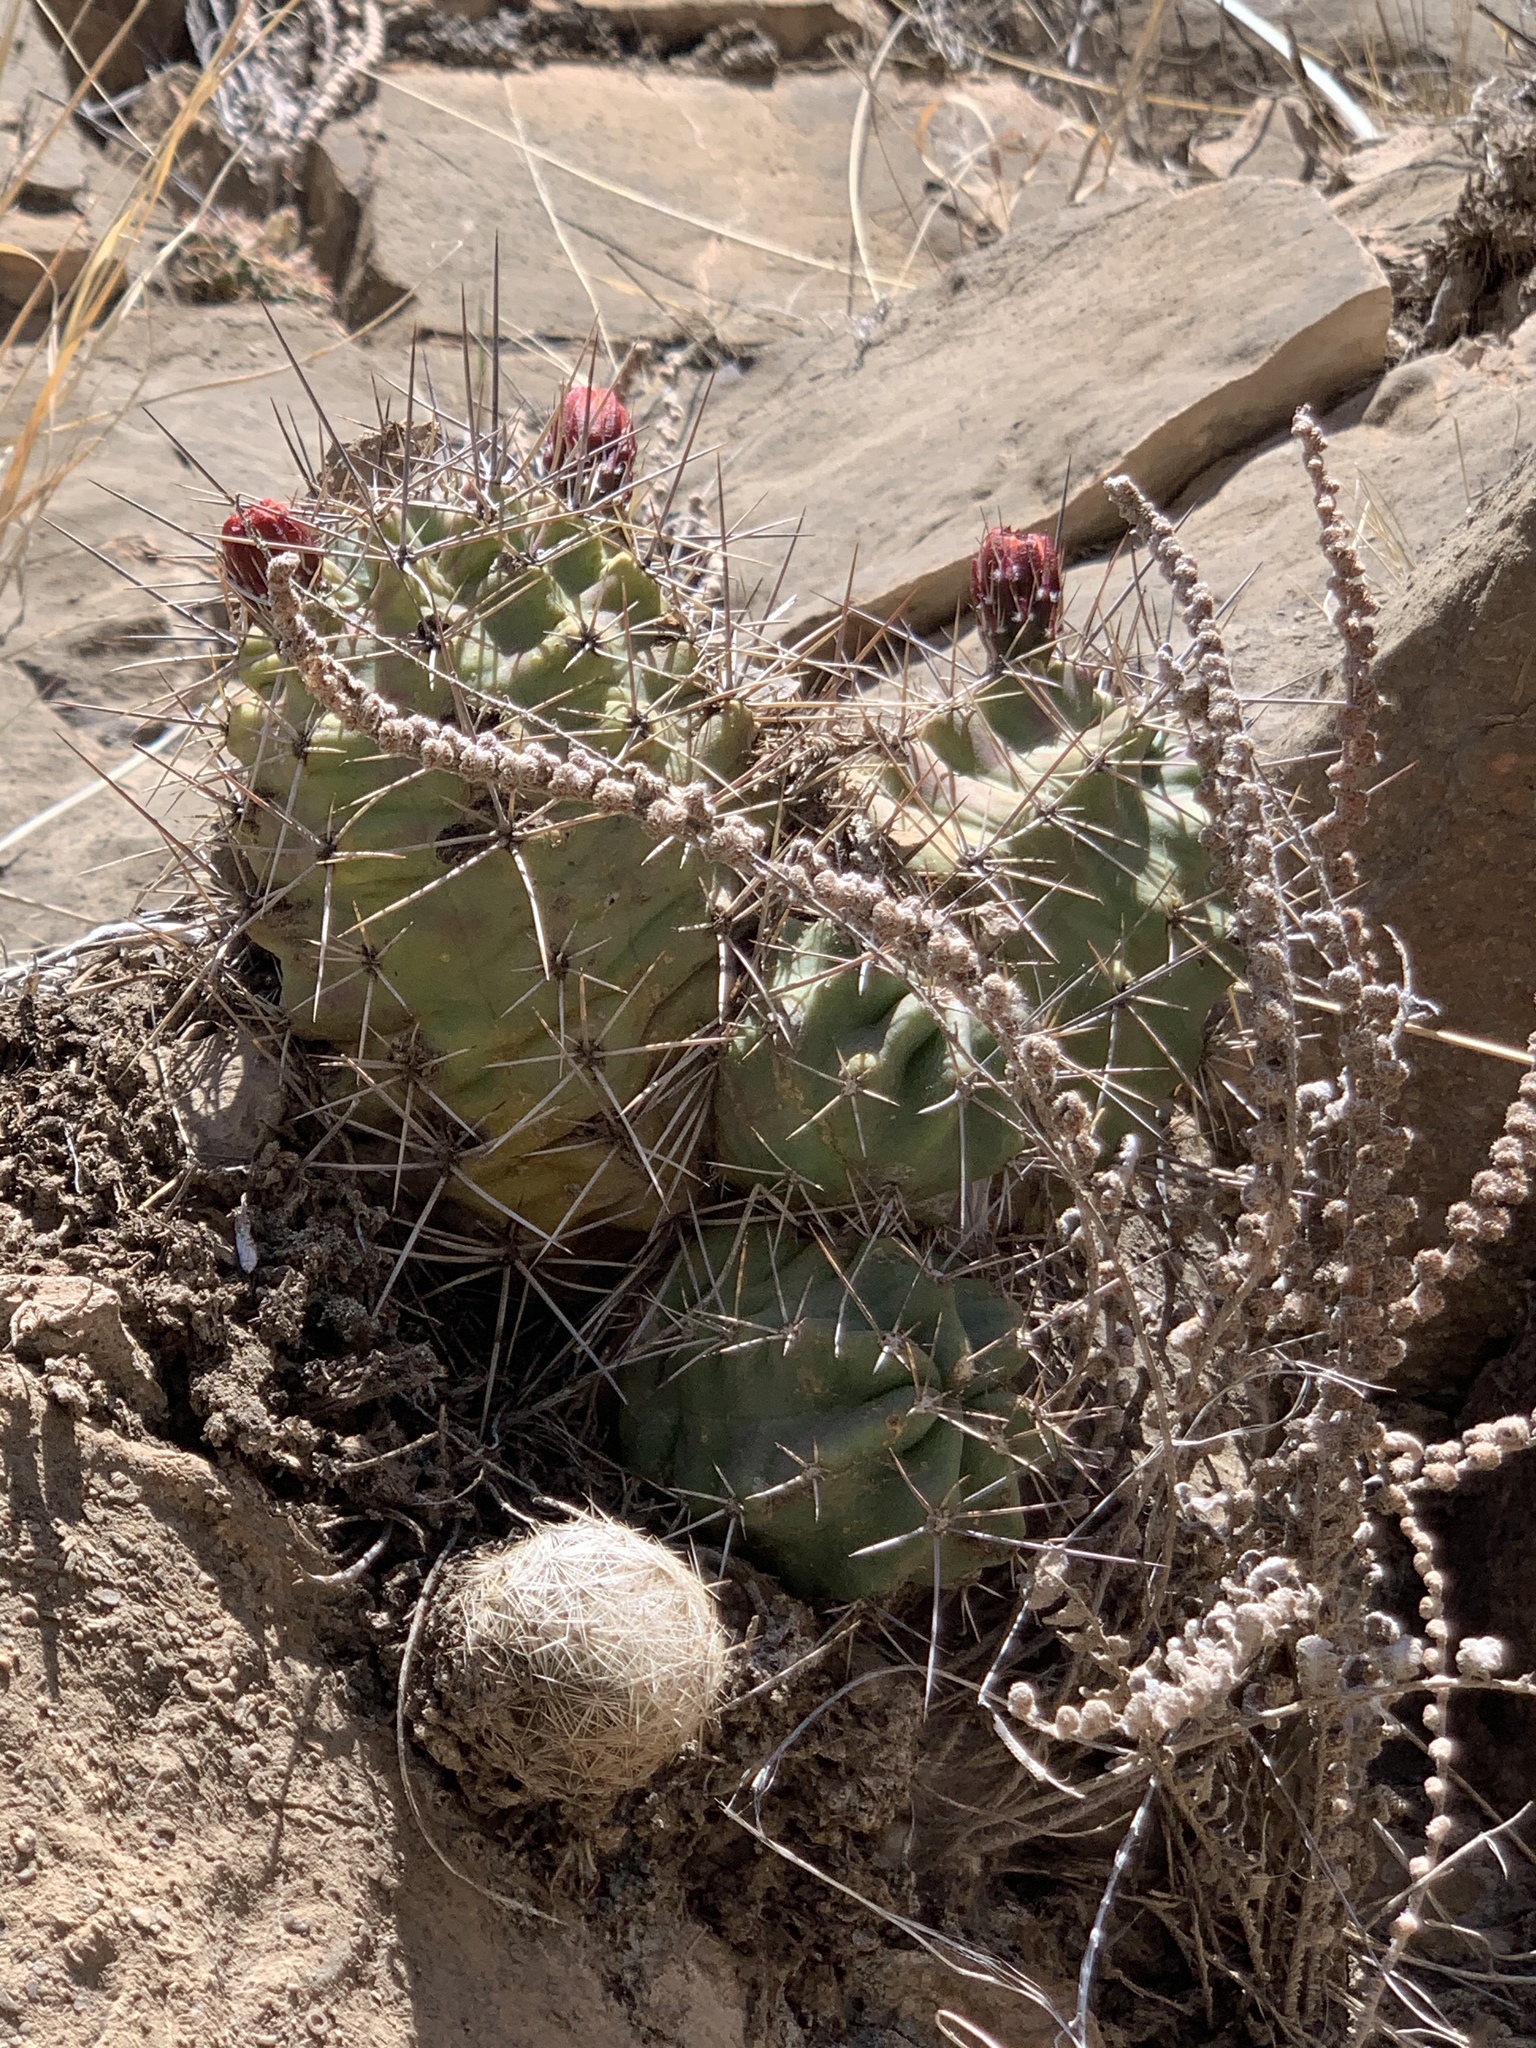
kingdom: Plantae
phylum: Tracheophyta
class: Magnoliopsida
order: Caryophyllales
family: Cactaceae
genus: Echinocereus
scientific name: Echinocereus coccineus
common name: Scarlet hedgehog cactus
